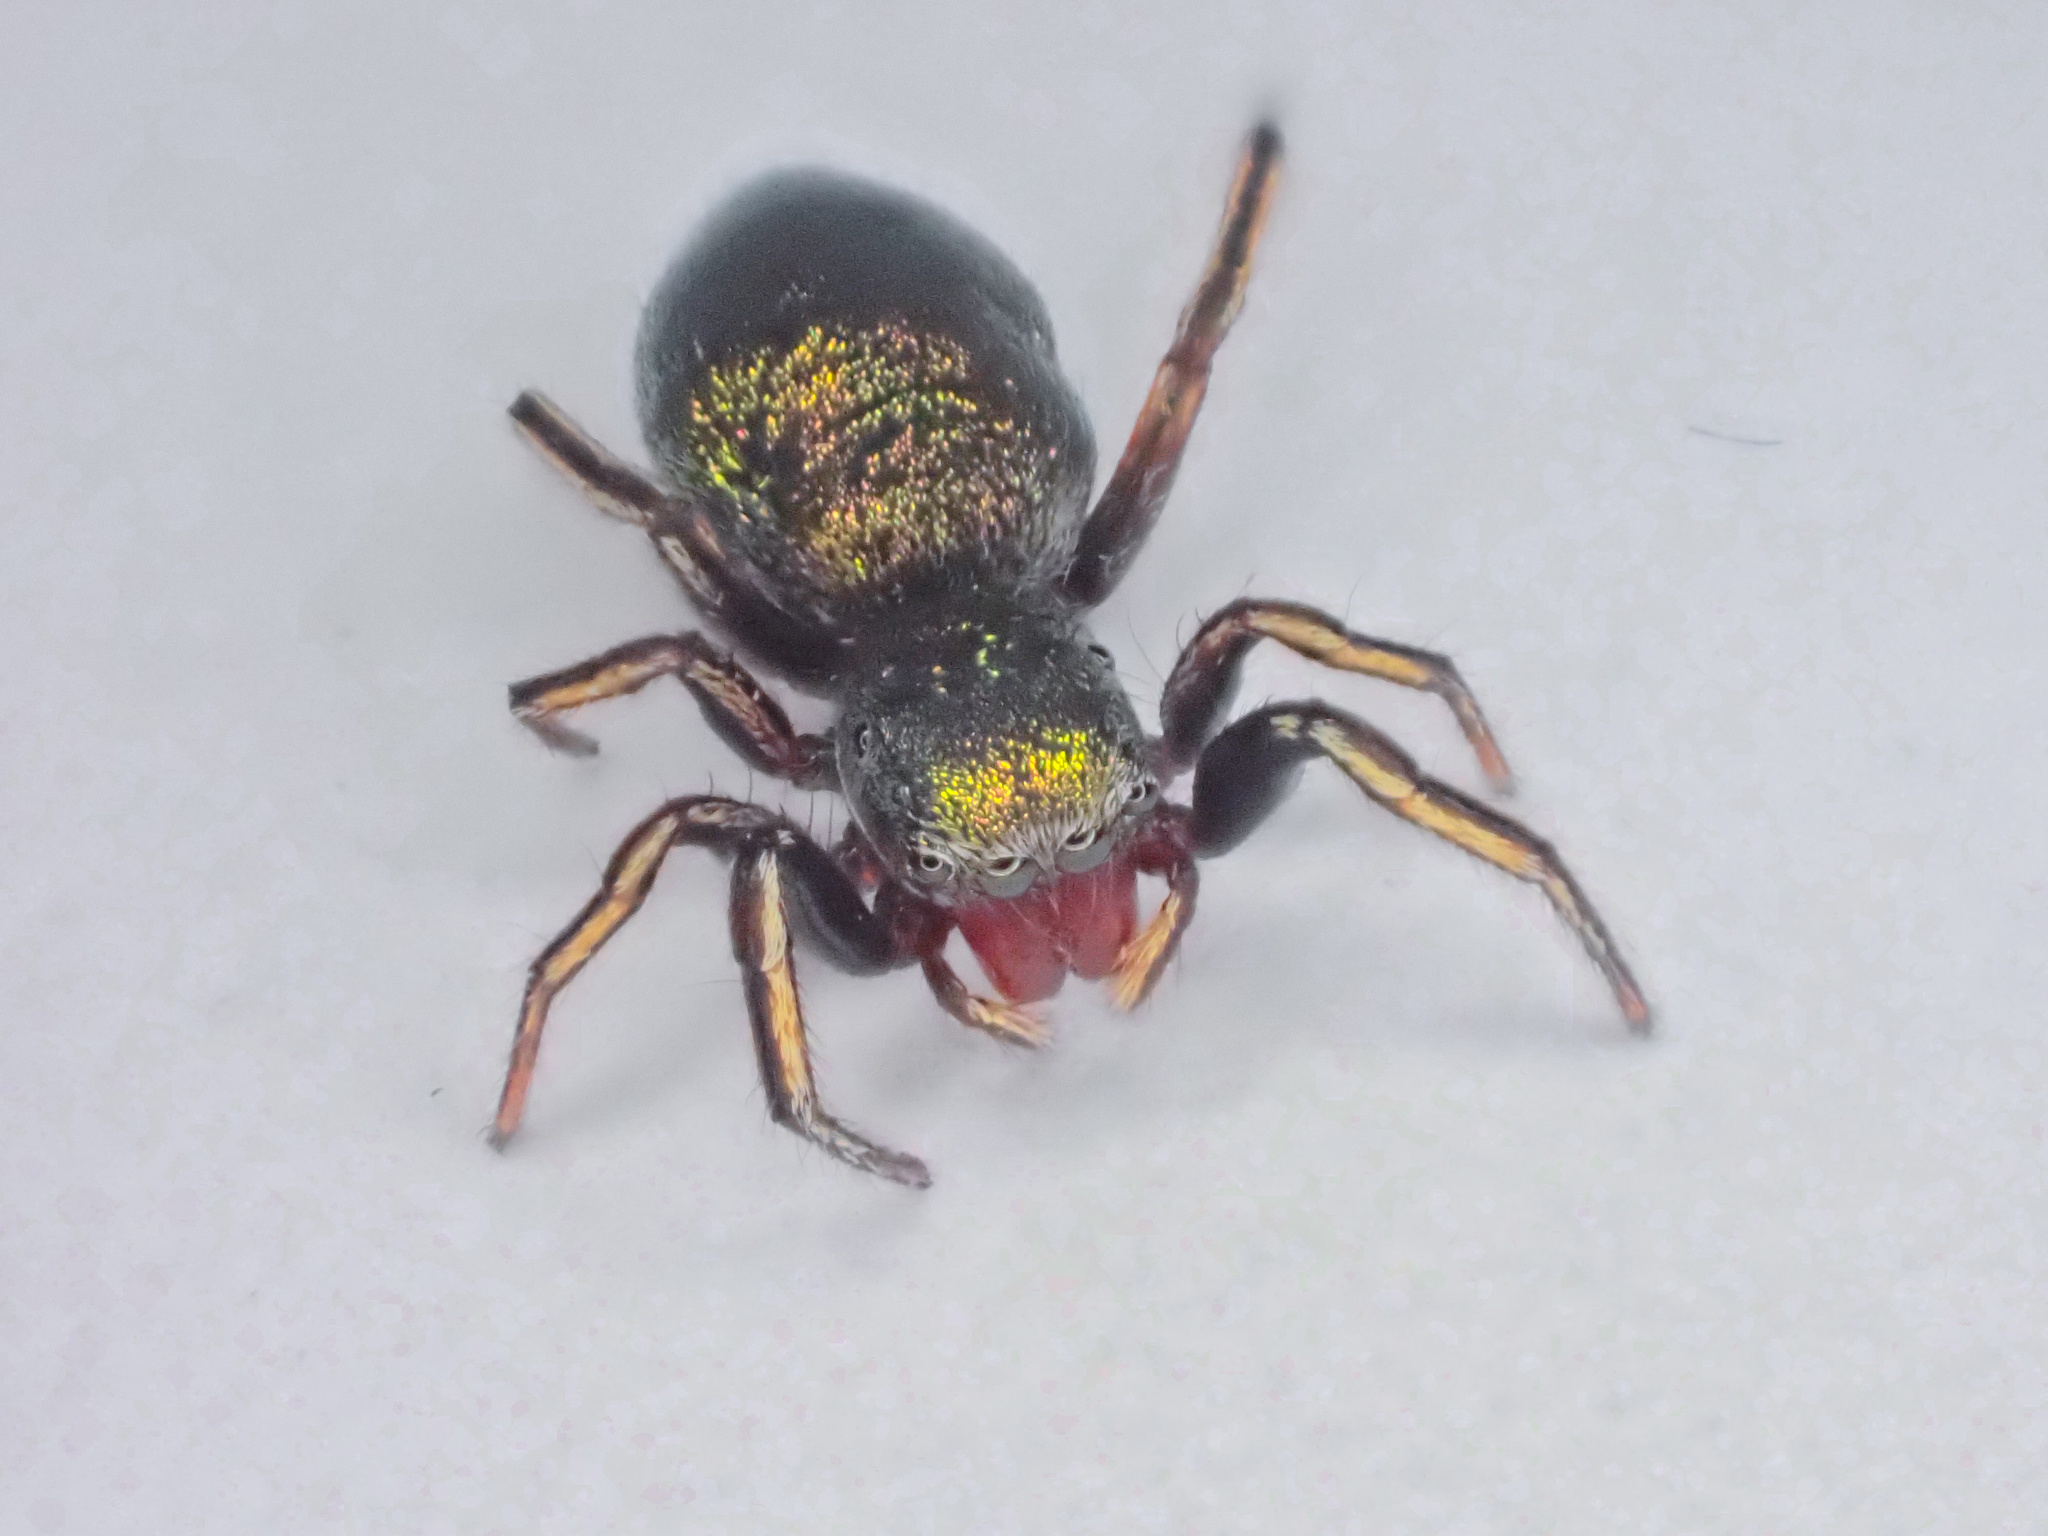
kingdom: Animalia
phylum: Arthropoda
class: Arachnida
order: Araneae
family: Salticidae
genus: Tutelina
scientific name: Tutelina elegans
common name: Thin-spined jumping spider
